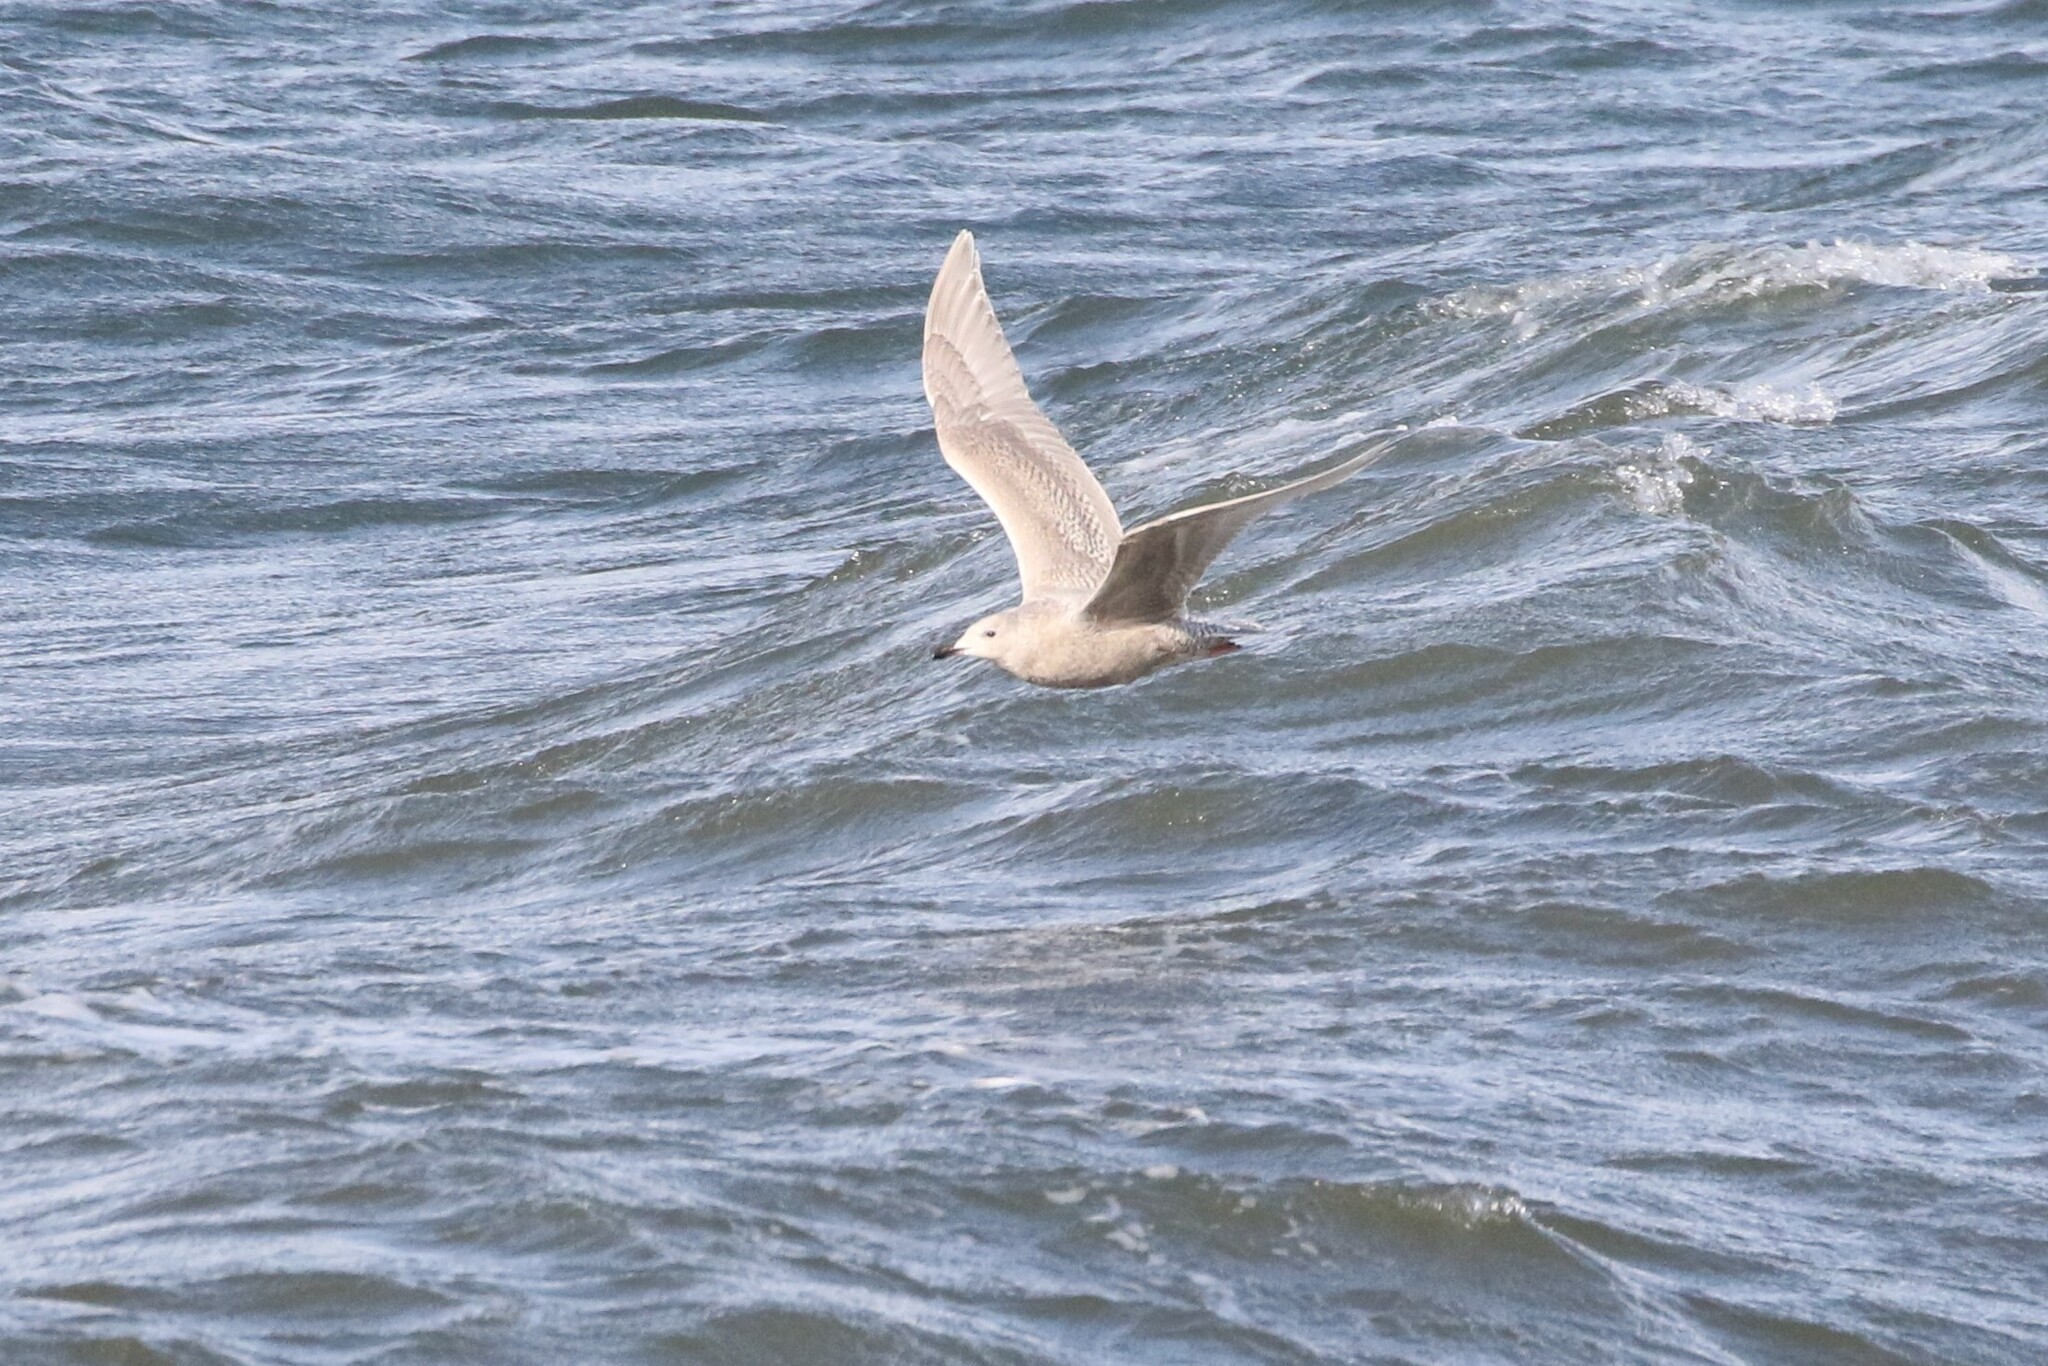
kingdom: Animalia
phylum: Chordata
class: Aves
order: Charadriiformes
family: Laridae
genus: Larus
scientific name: Larus glaucoides
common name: Iceland gull
